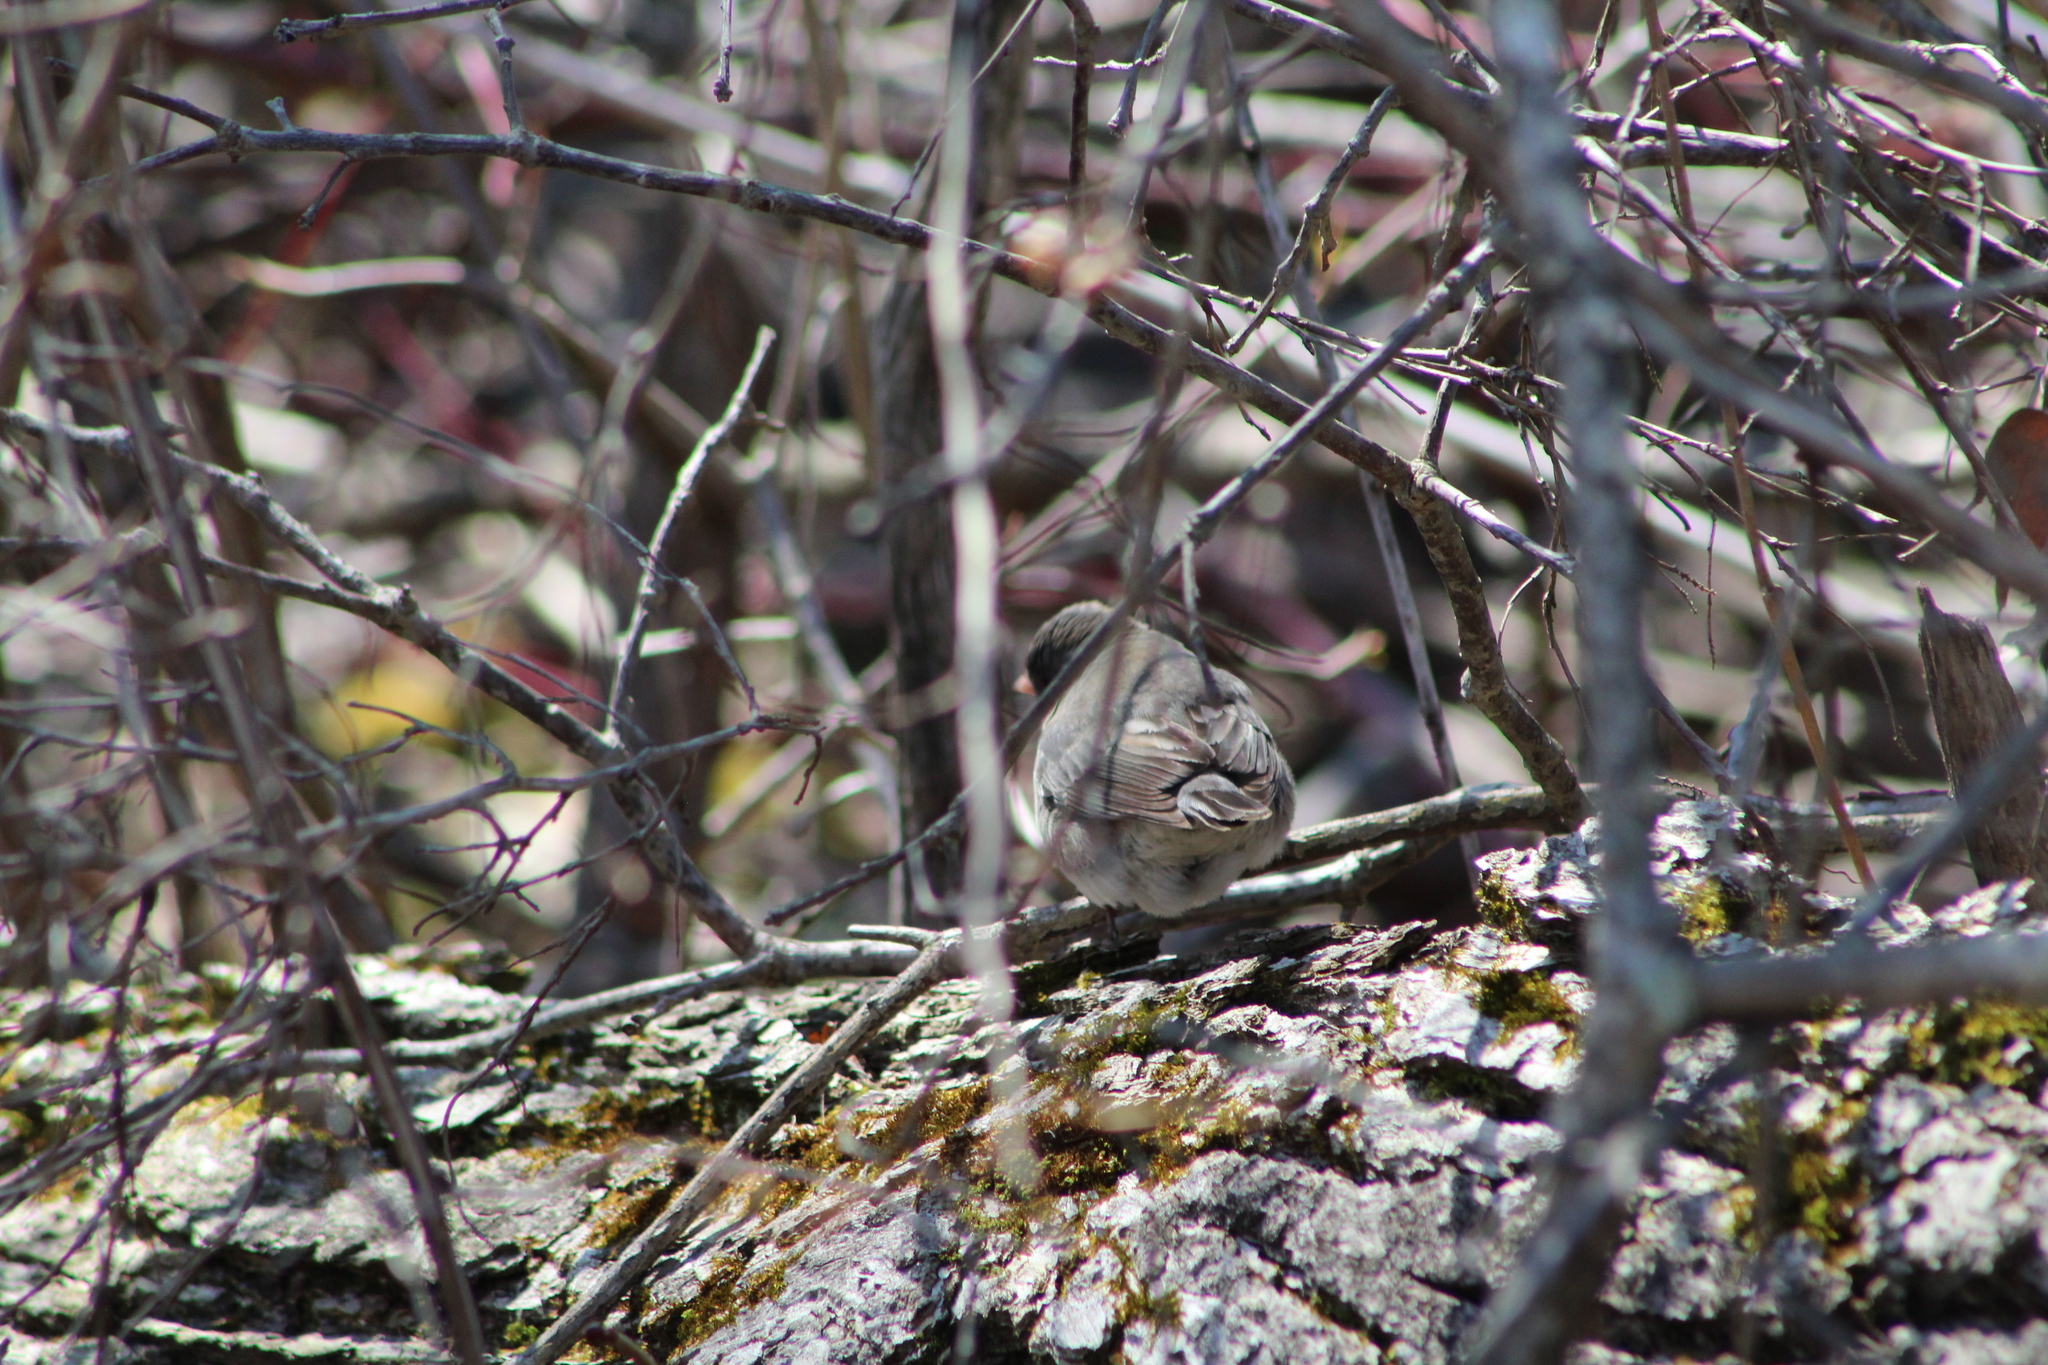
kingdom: Animalia
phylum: Chordata
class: Aves
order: Passeriformes
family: Passerellidae
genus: Junco
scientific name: Junco hyemalis
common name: Dark-eyed junco
